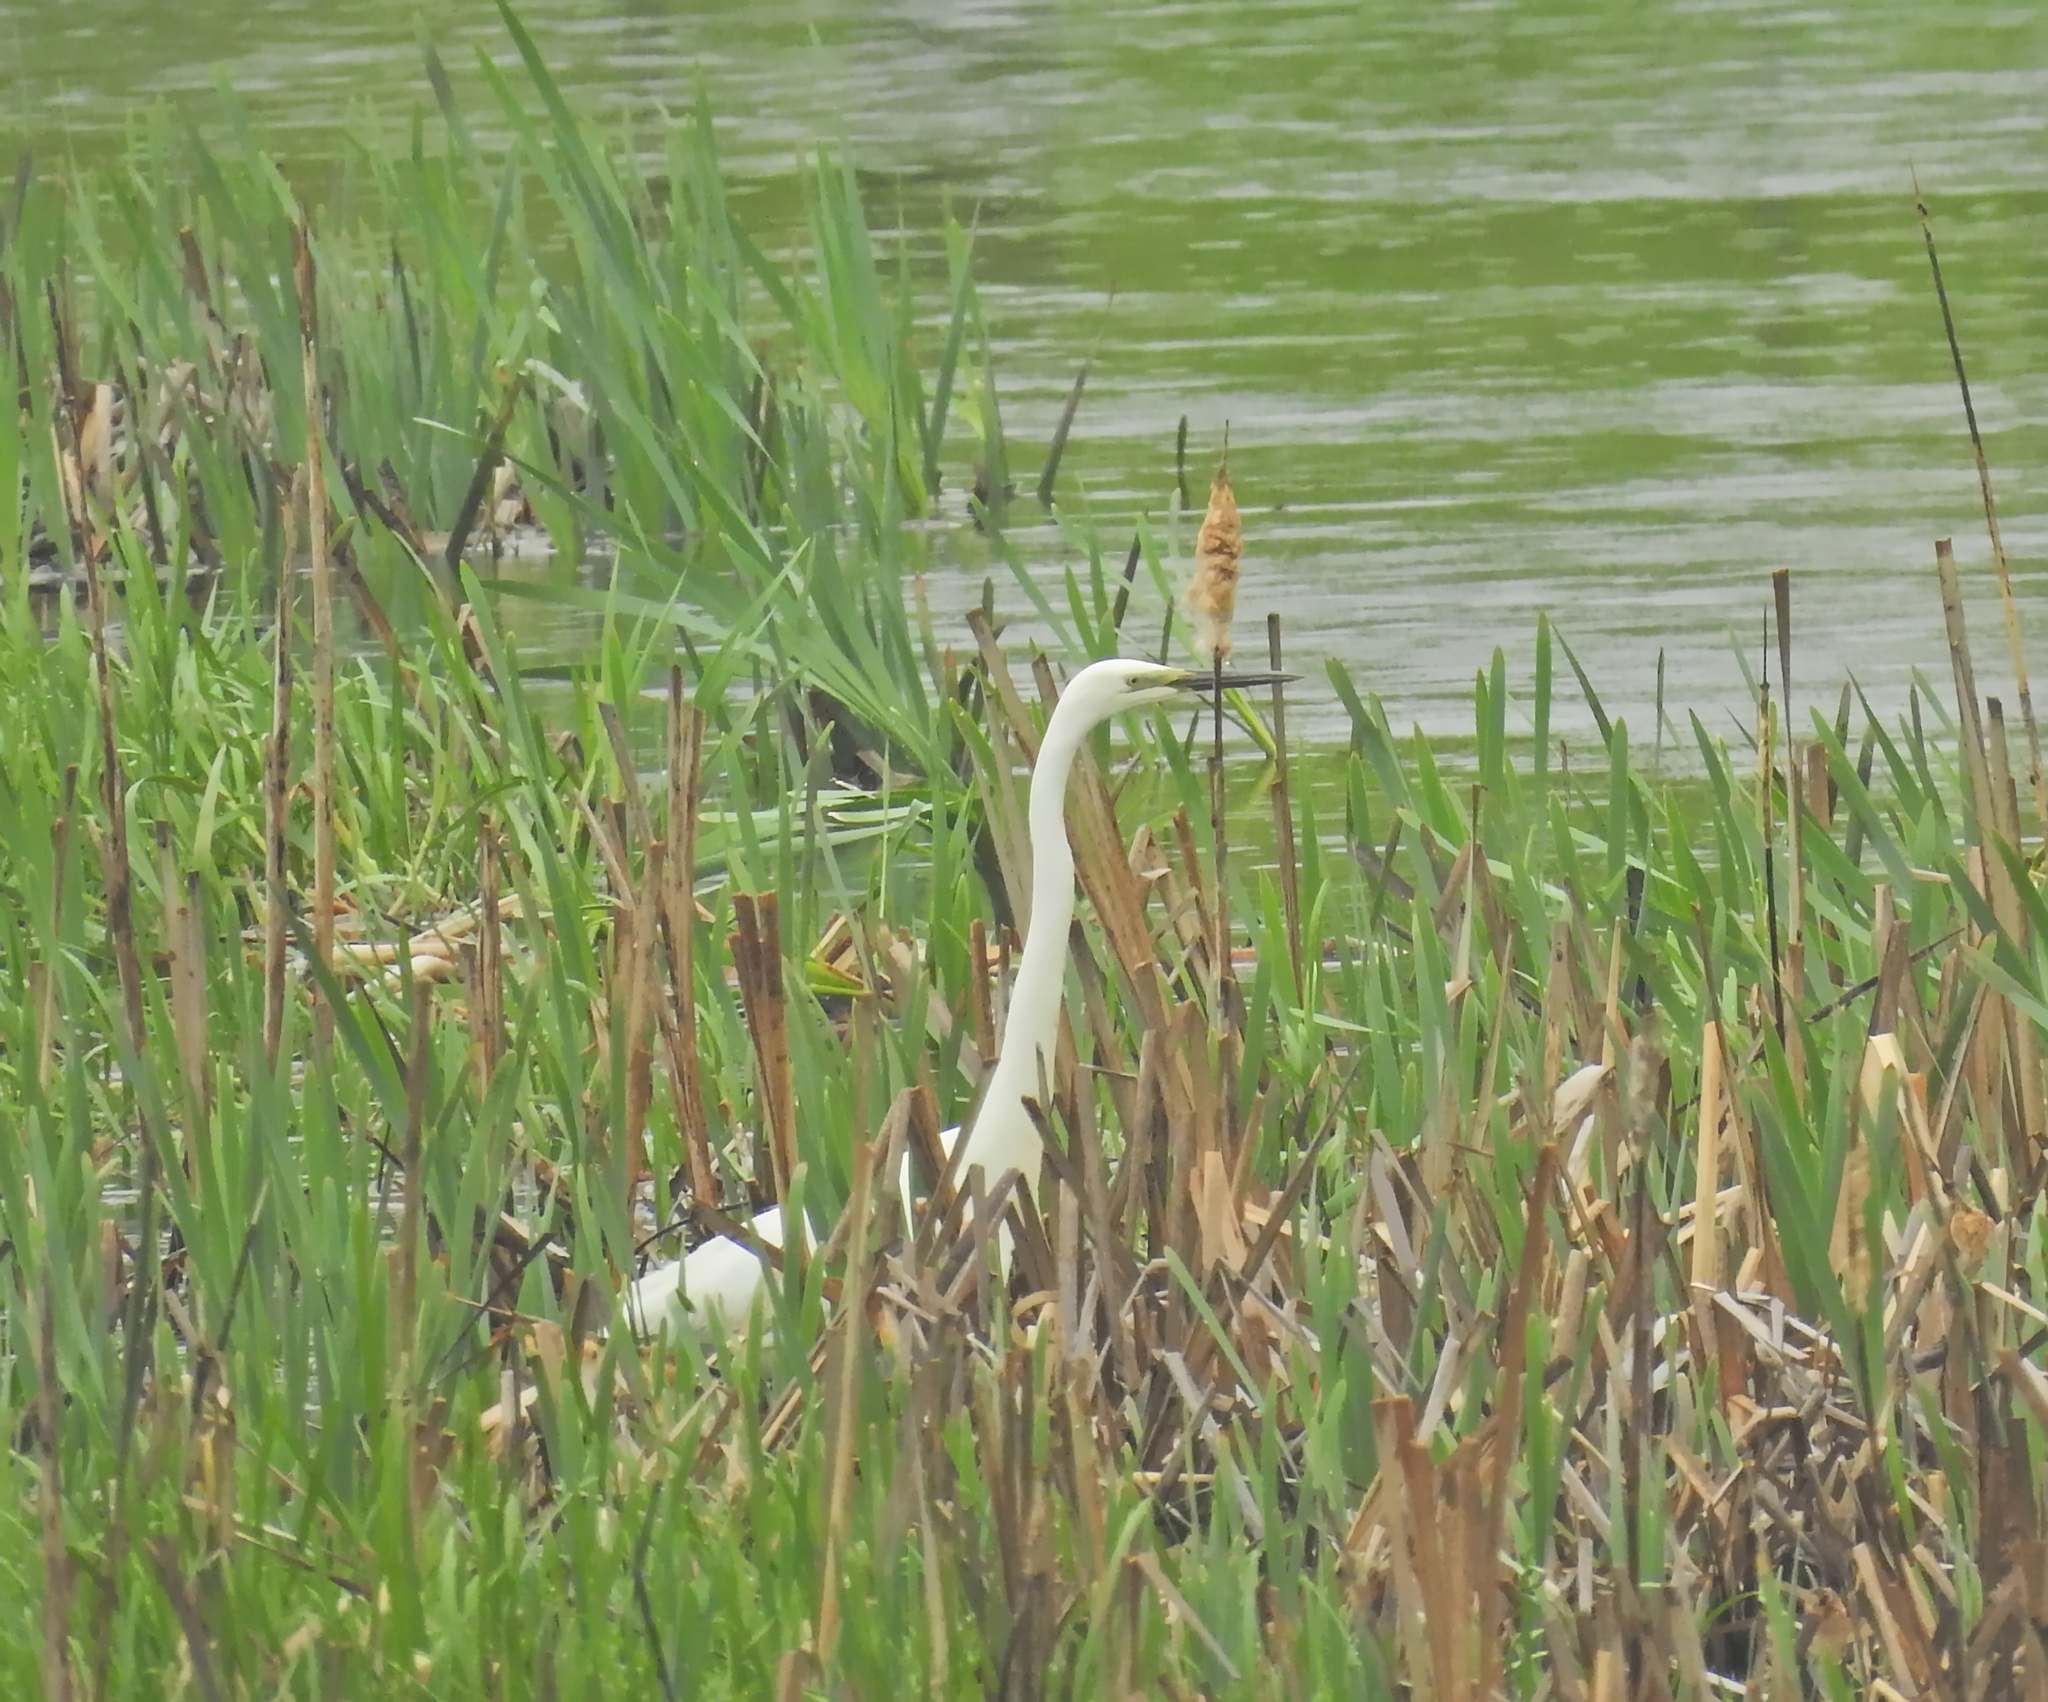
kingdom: Animalia
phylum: Chordata
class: Aves
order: Pelecaniformes
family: Ardeidae
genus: Ardea
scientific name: Ardea alba
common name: Great egret
